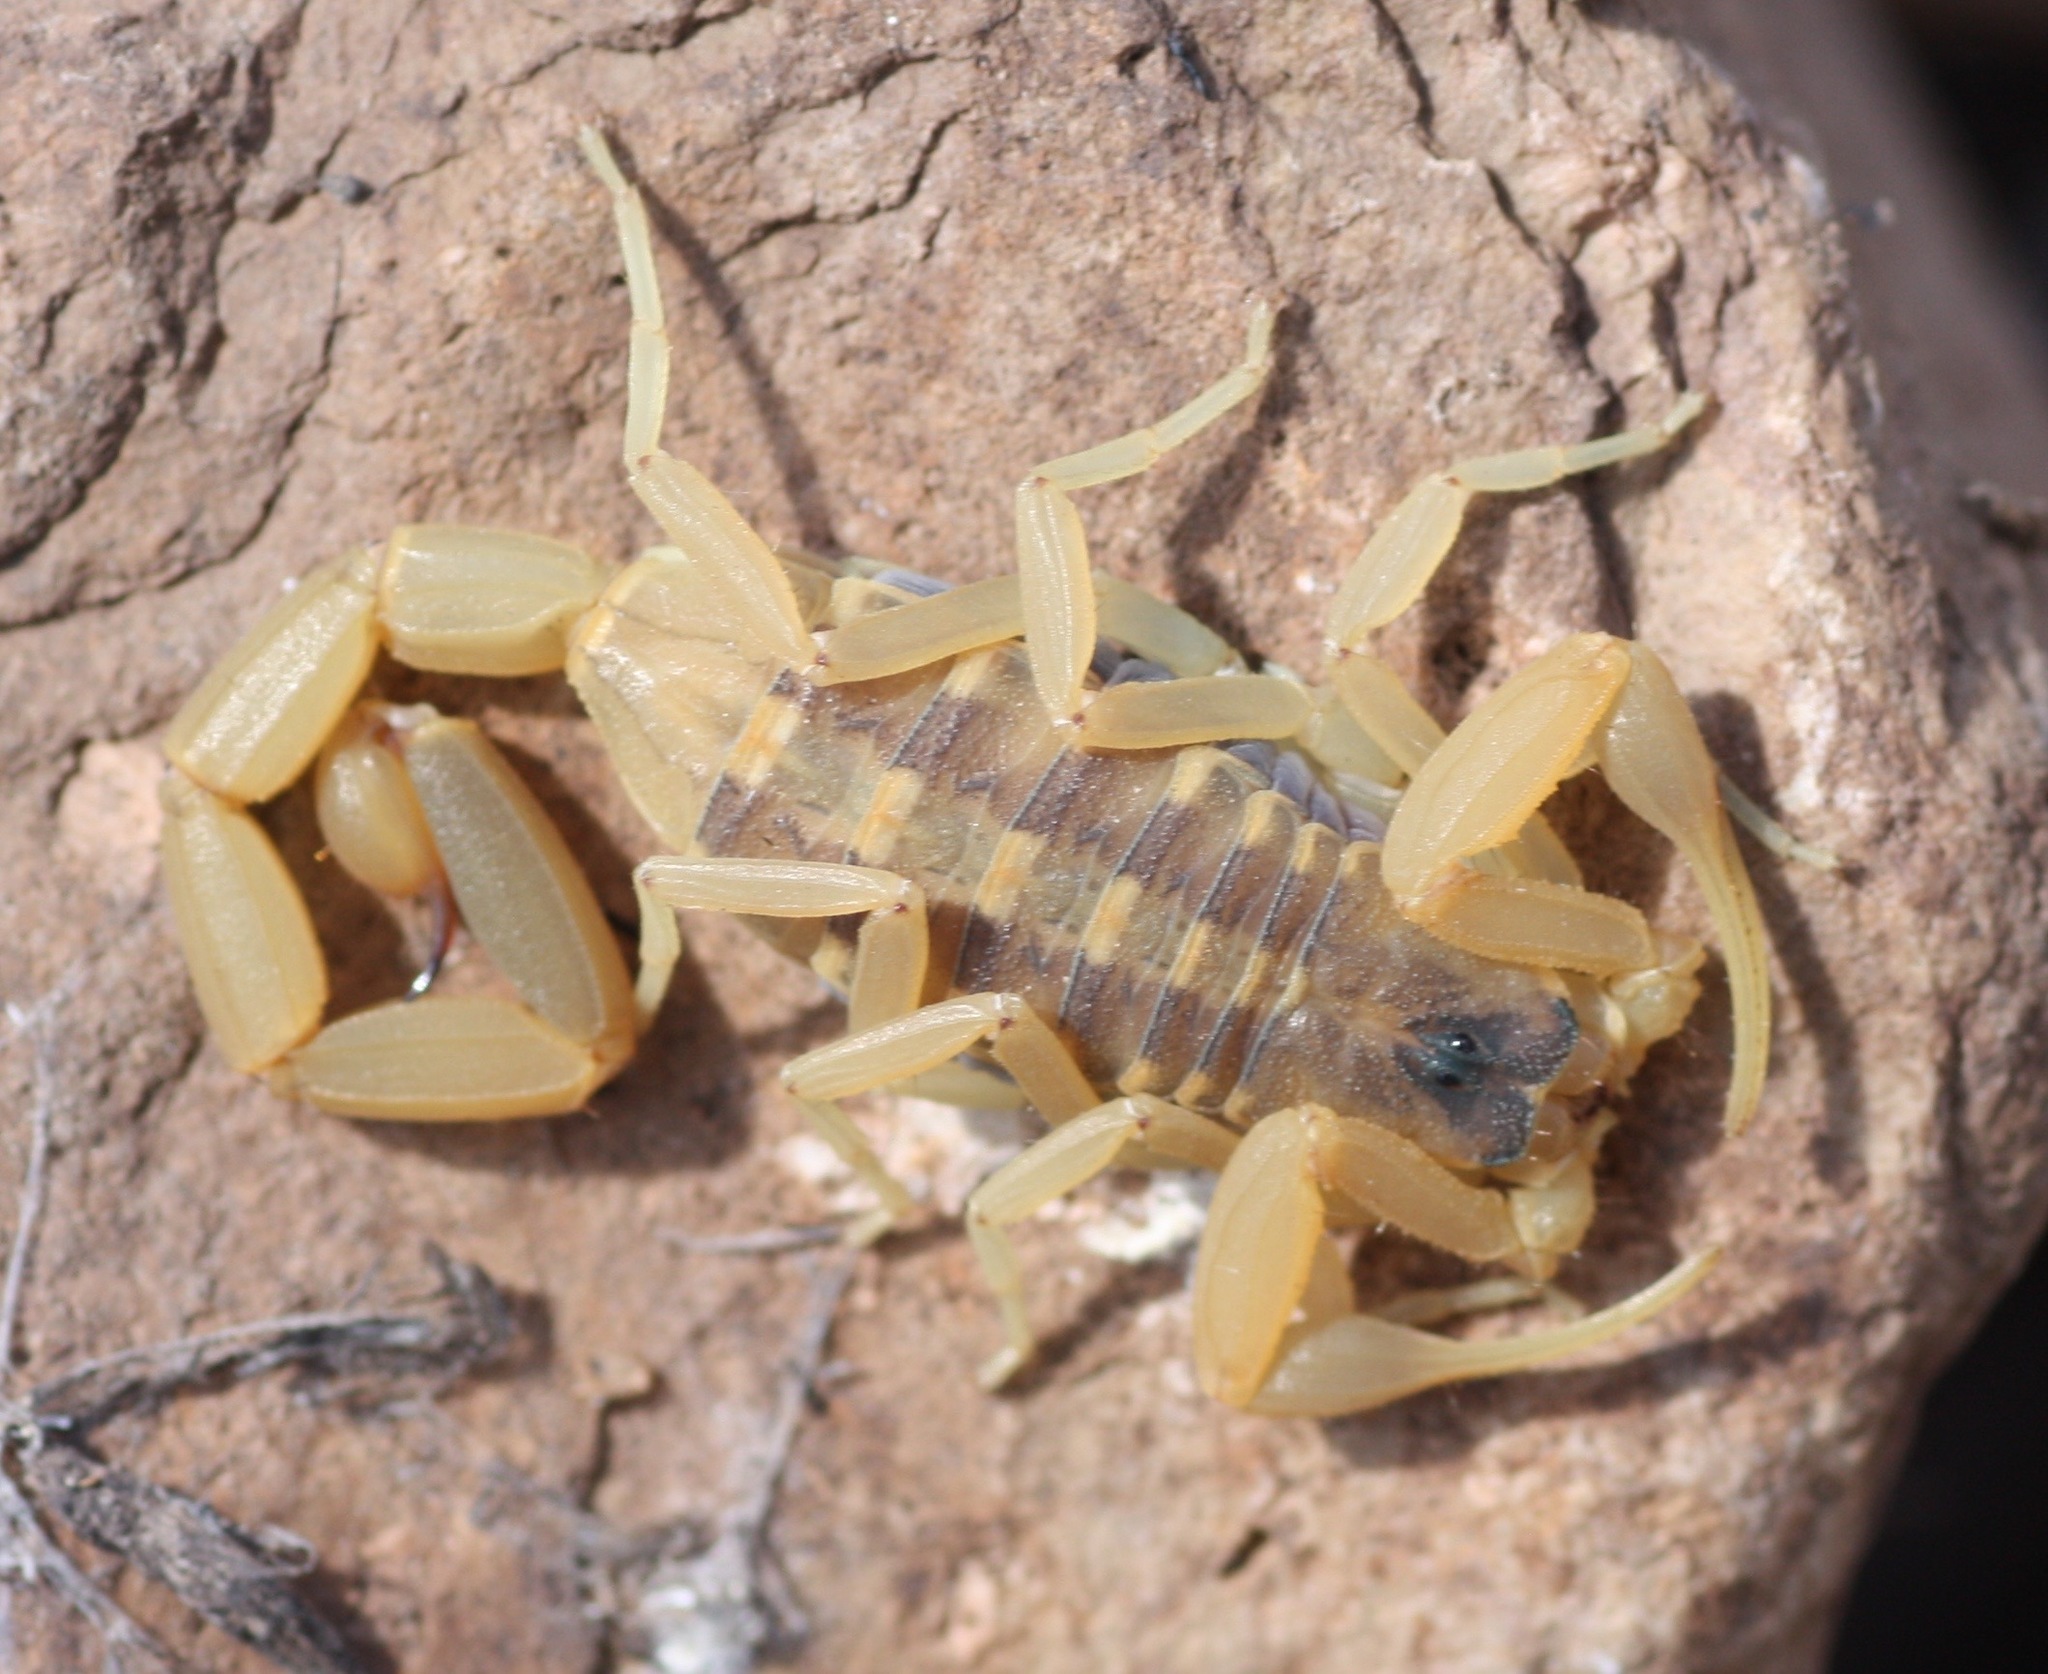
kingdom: Animalia
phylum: Arthropoda
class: Arachnida
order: Scorpiones
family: Buthidae
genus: Centruroides
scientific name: Centruroides vittatus
